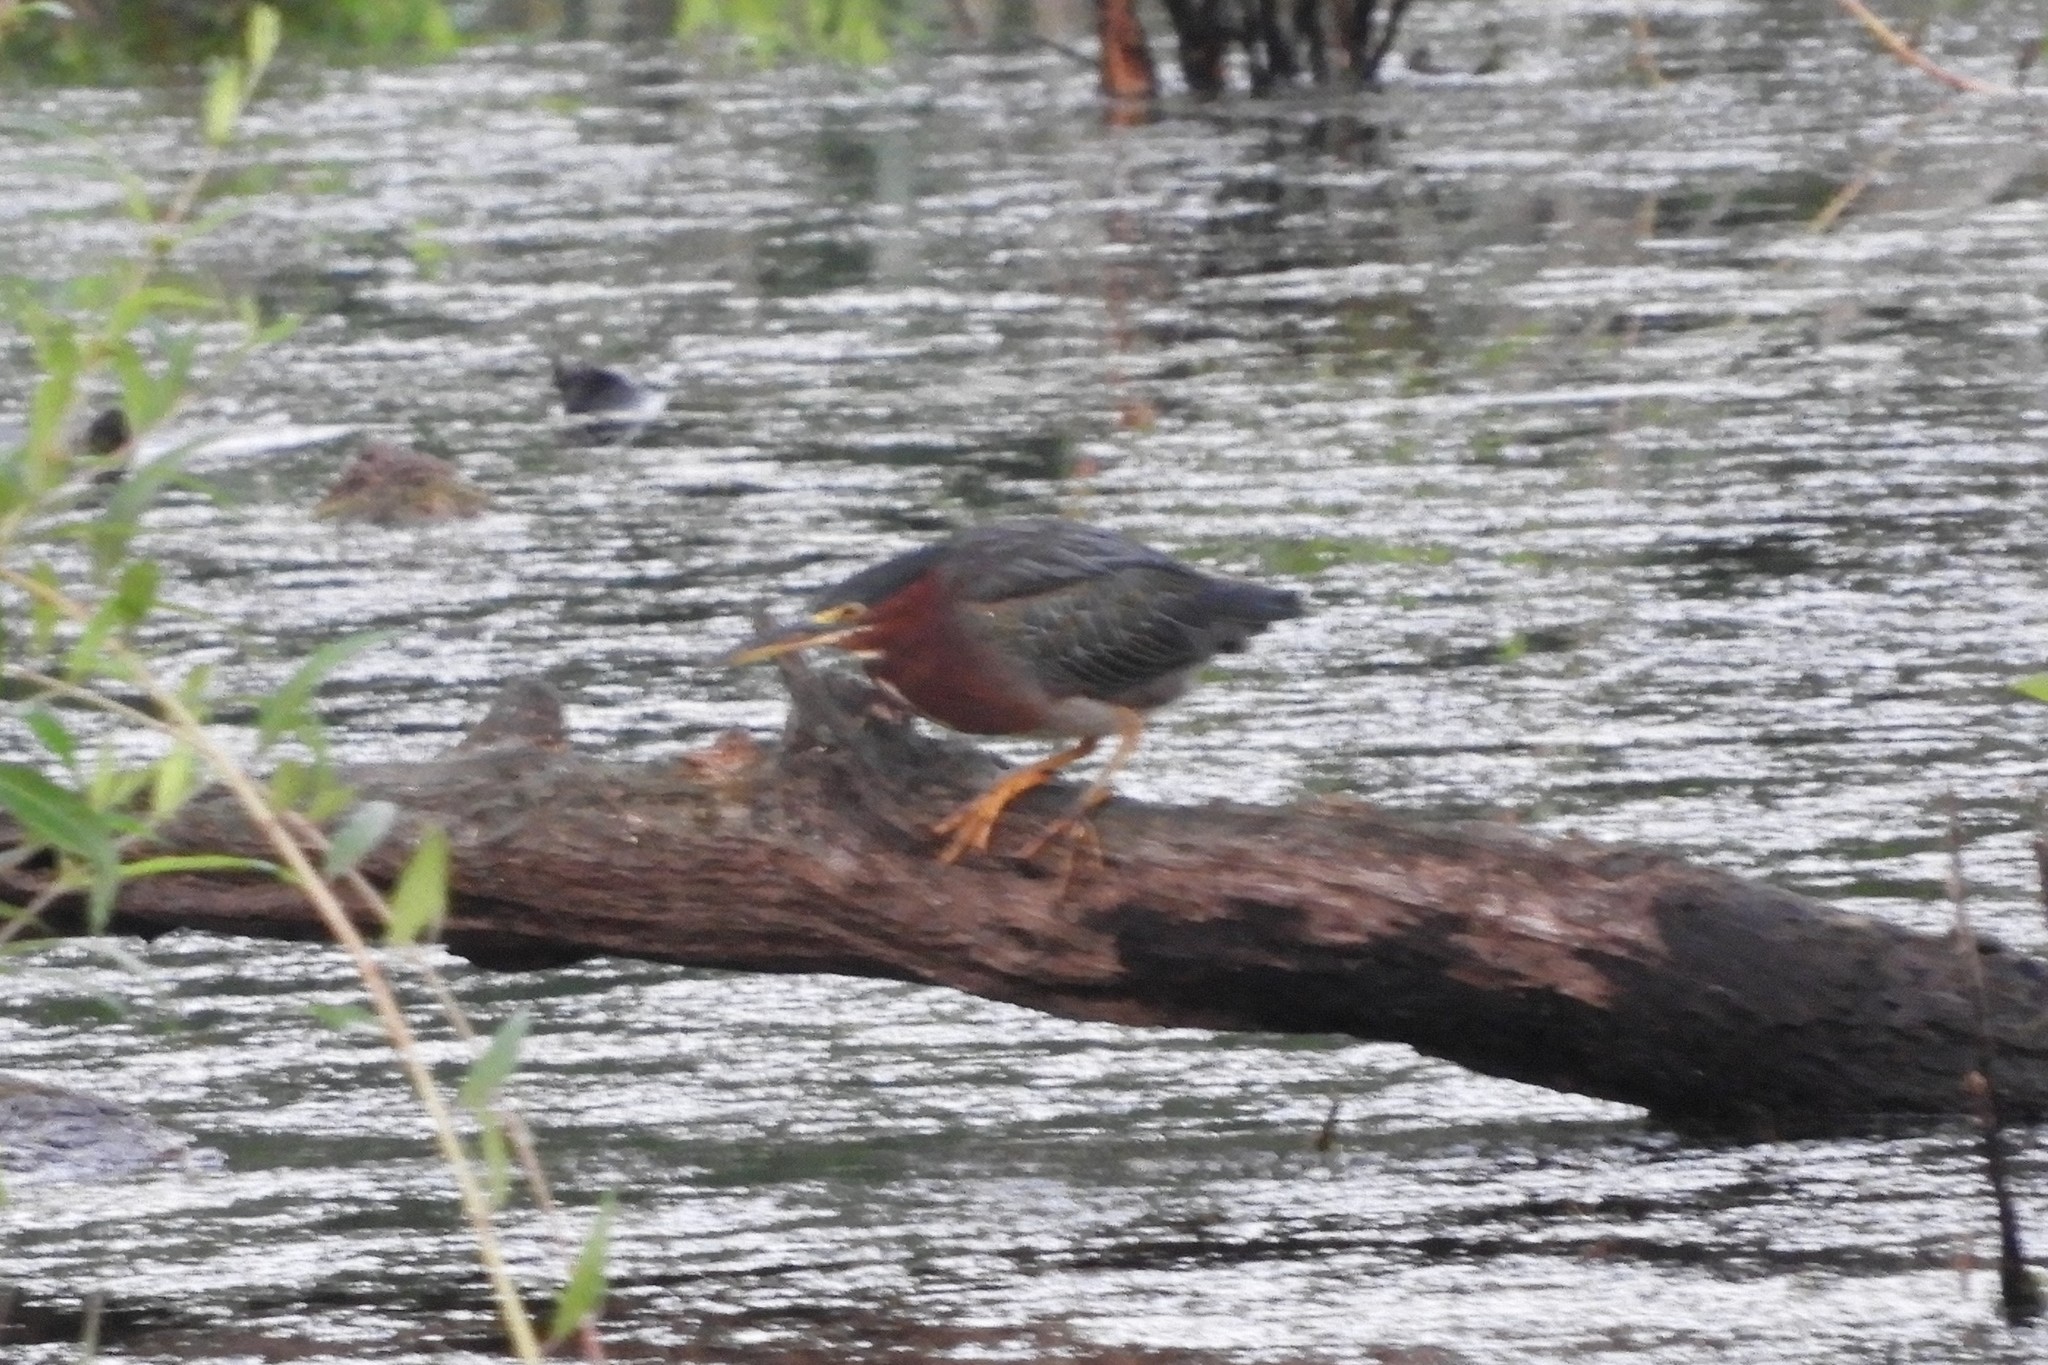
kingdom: Animalia
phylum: Chordata
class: Aves
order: Pelecaniformes
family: Ardeidae
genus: Butorides
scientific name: Butorides virescens
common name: Green heron
